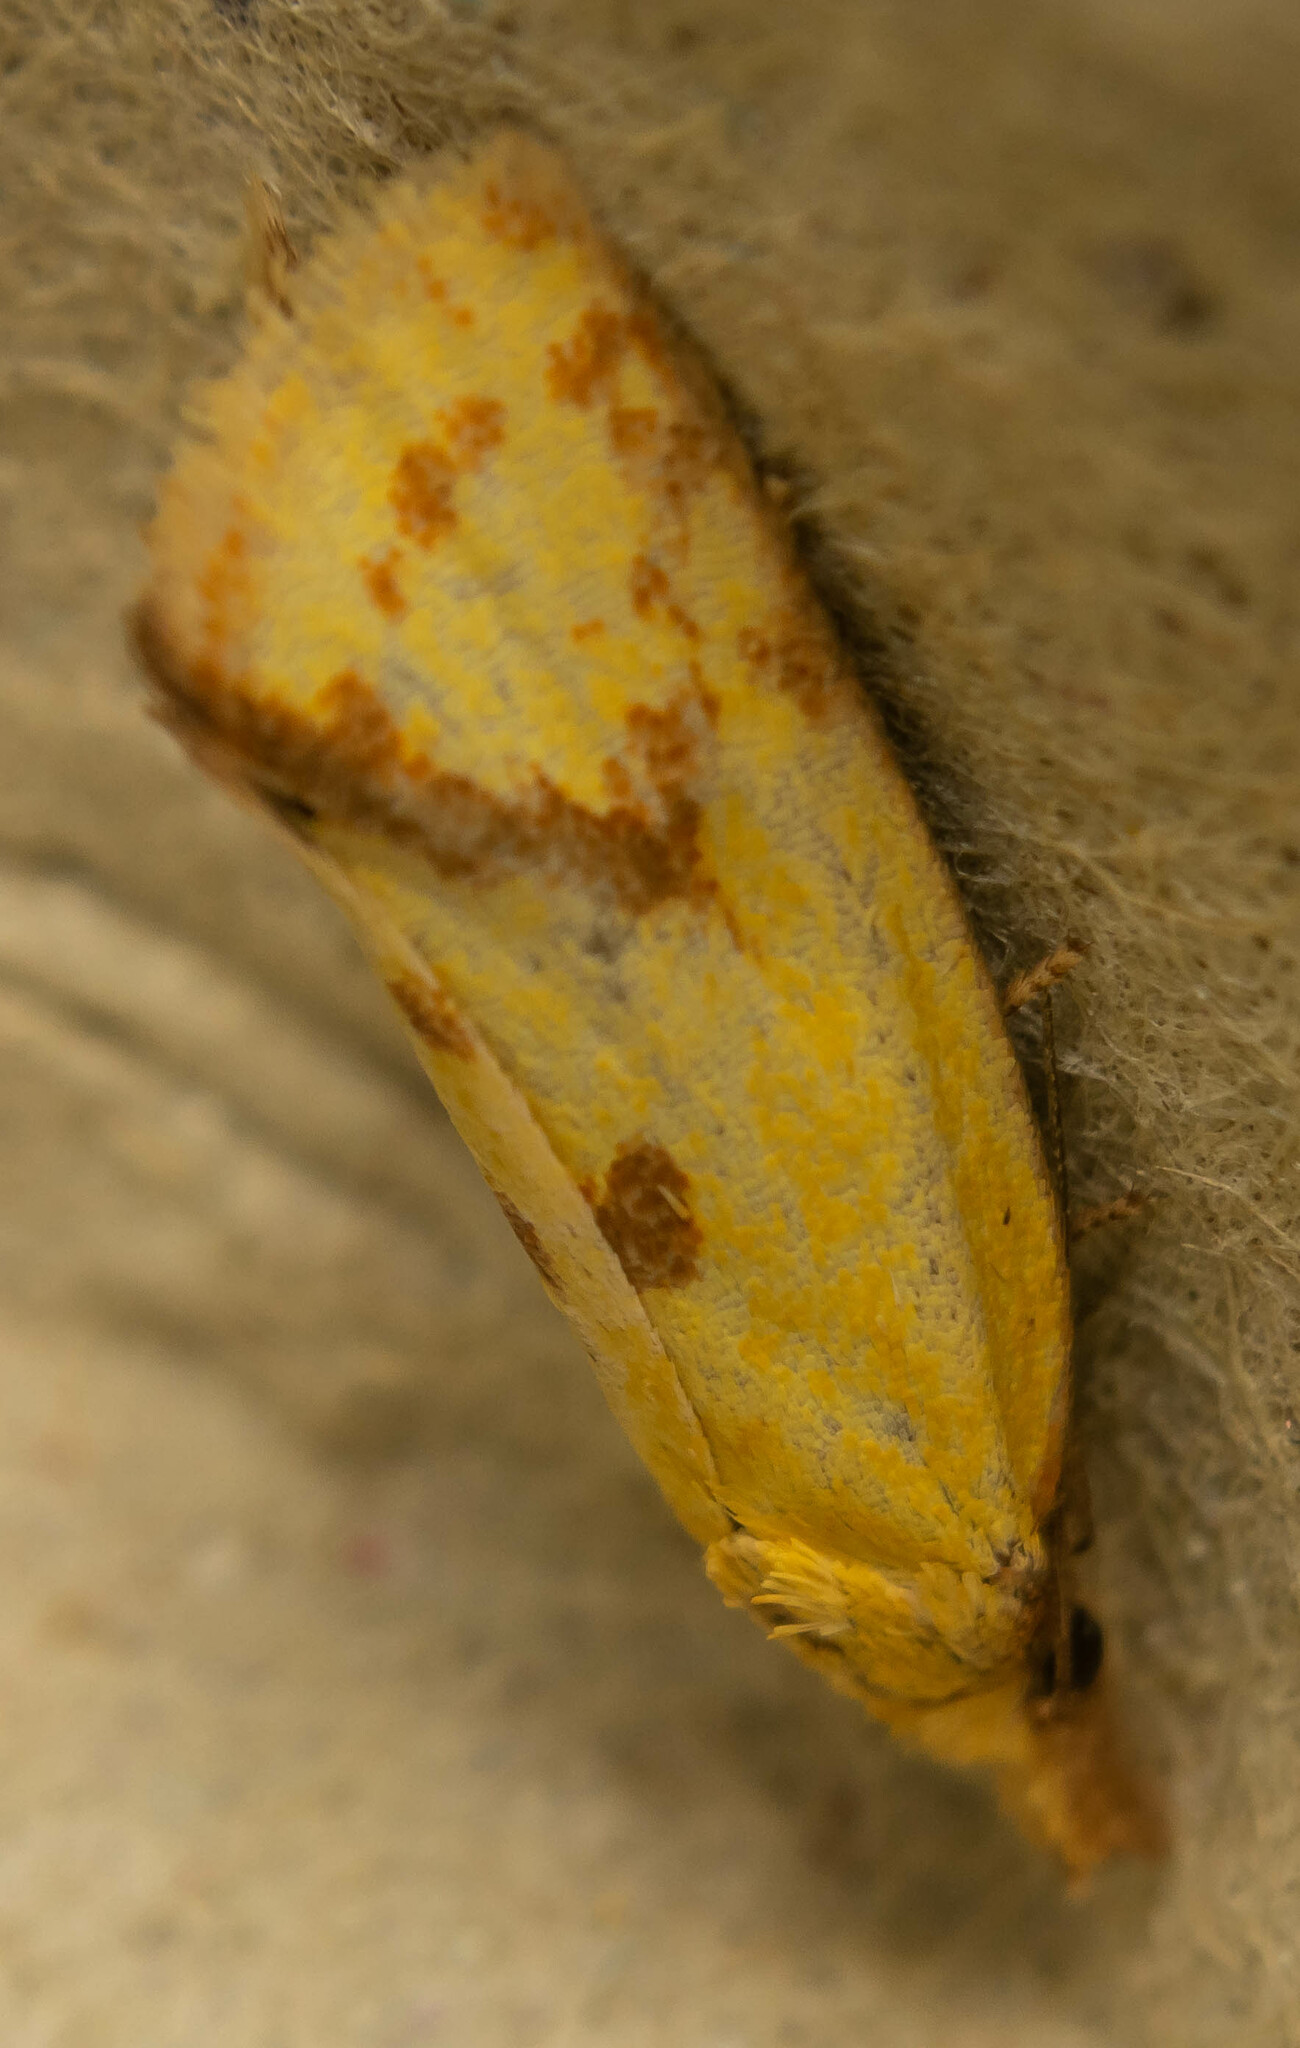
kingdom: Animalia
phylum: Arthropoda
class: Insecta
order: Lepidoptera
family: Tortricidae
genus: Agapeta
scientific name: Agapeta hamana
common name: Common yellow conch
